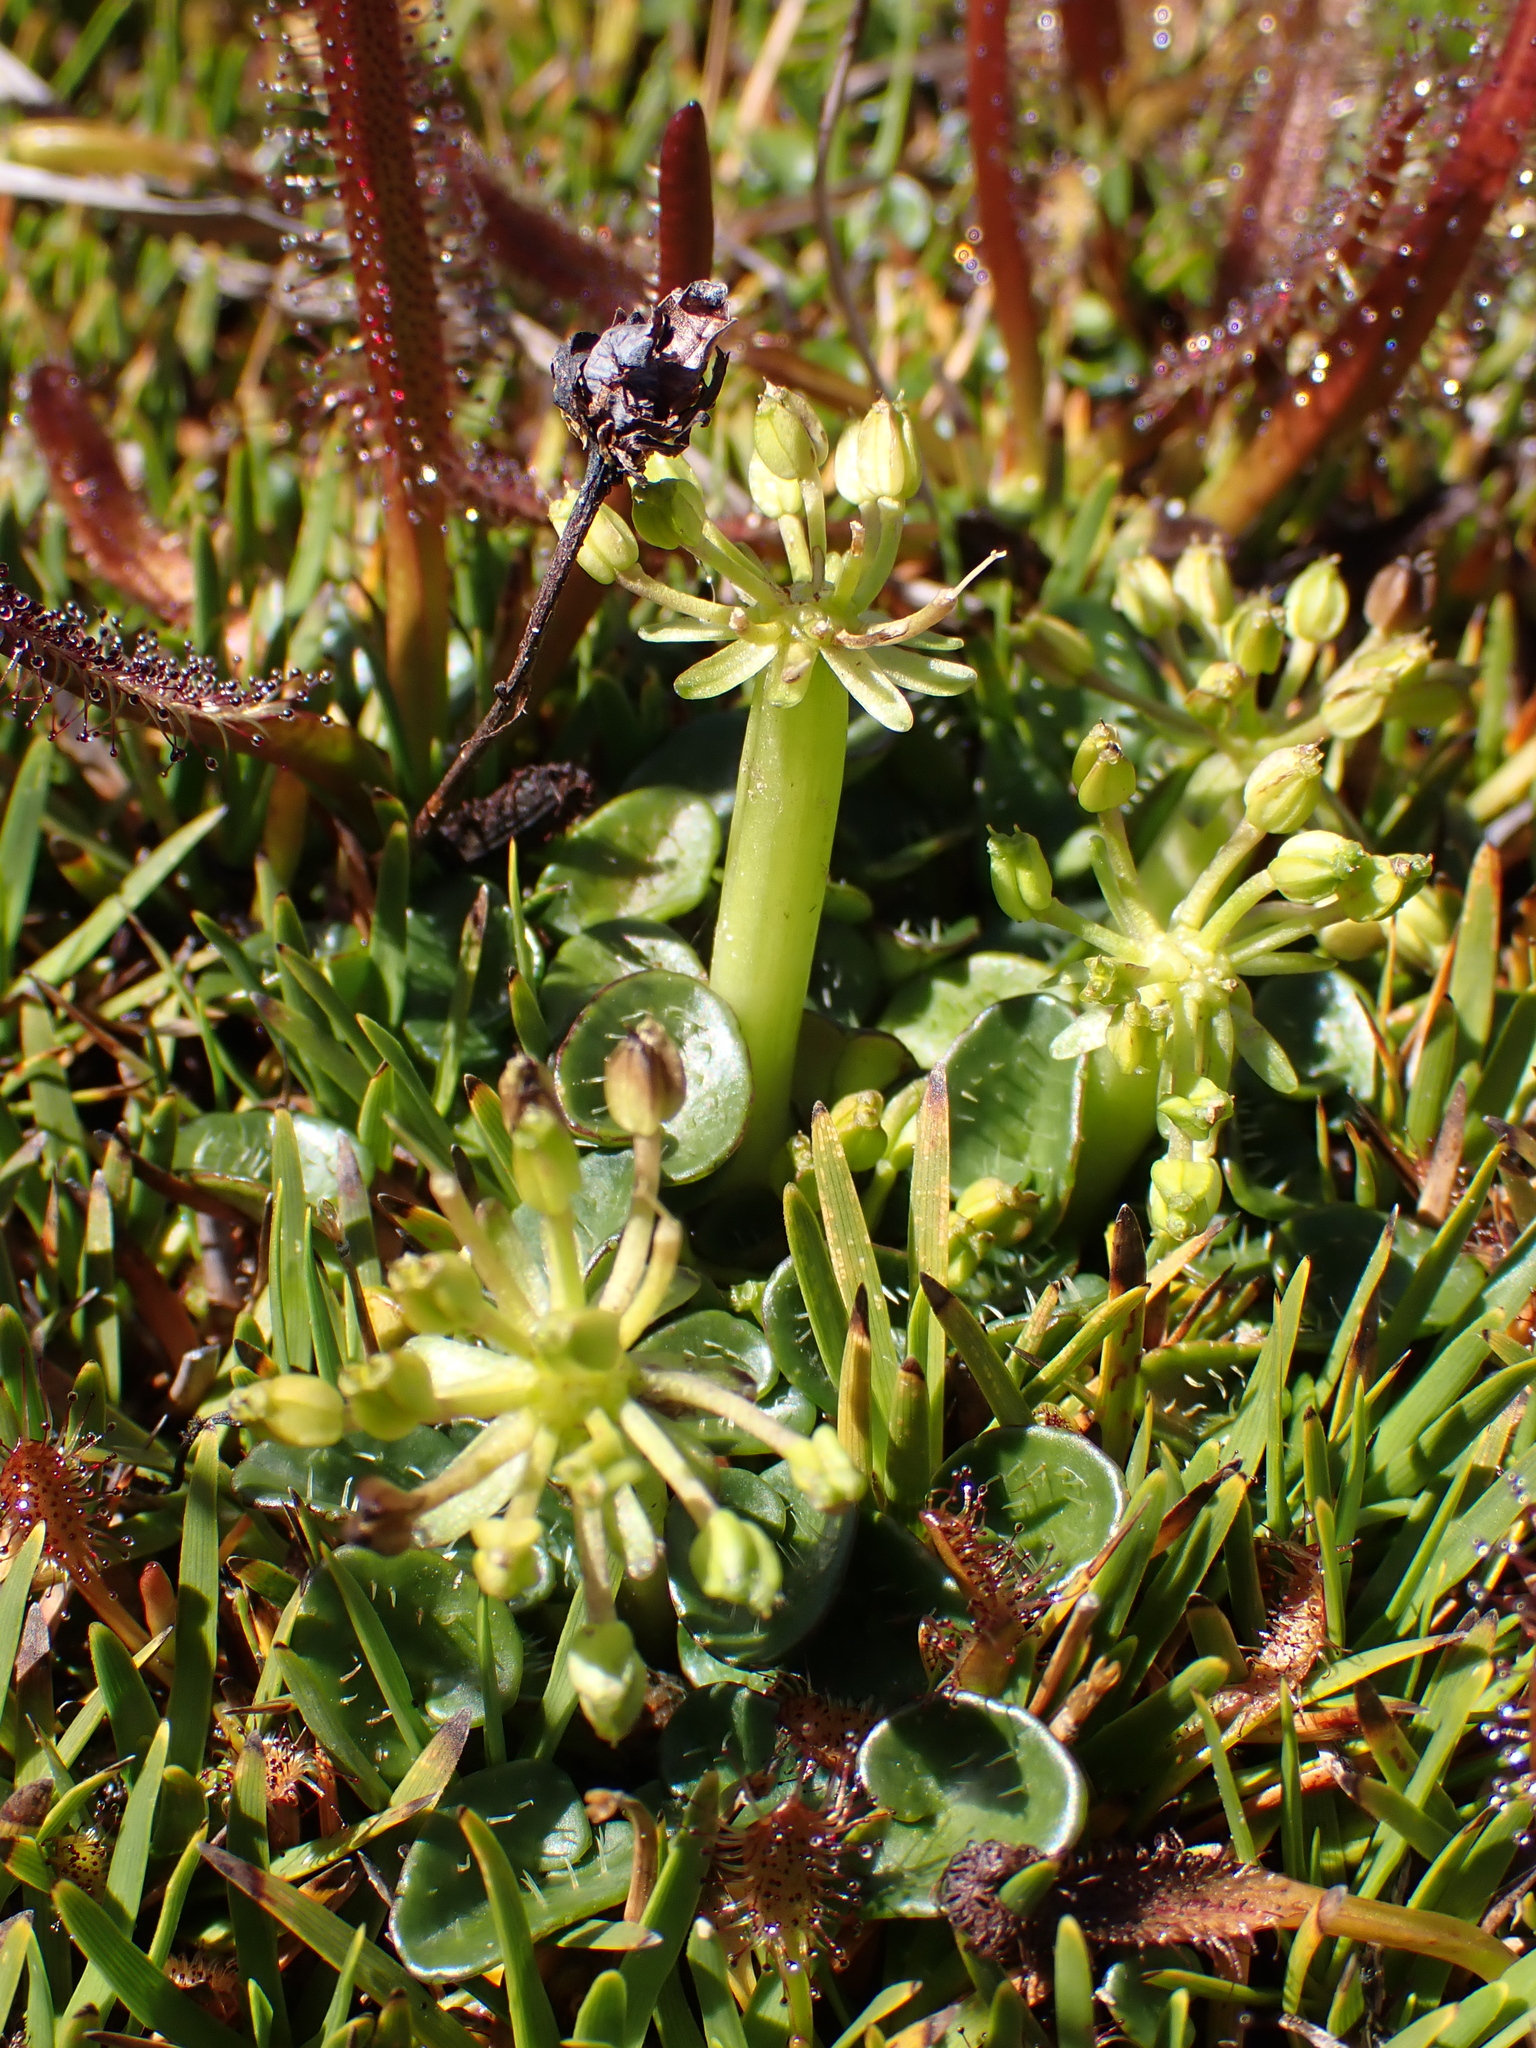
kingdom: Plantae
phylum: Tracheophyta
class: Magnoliopsida
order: Apiales
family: Apiaceae
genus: Diplaspis
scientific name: Diplaspis nivis
